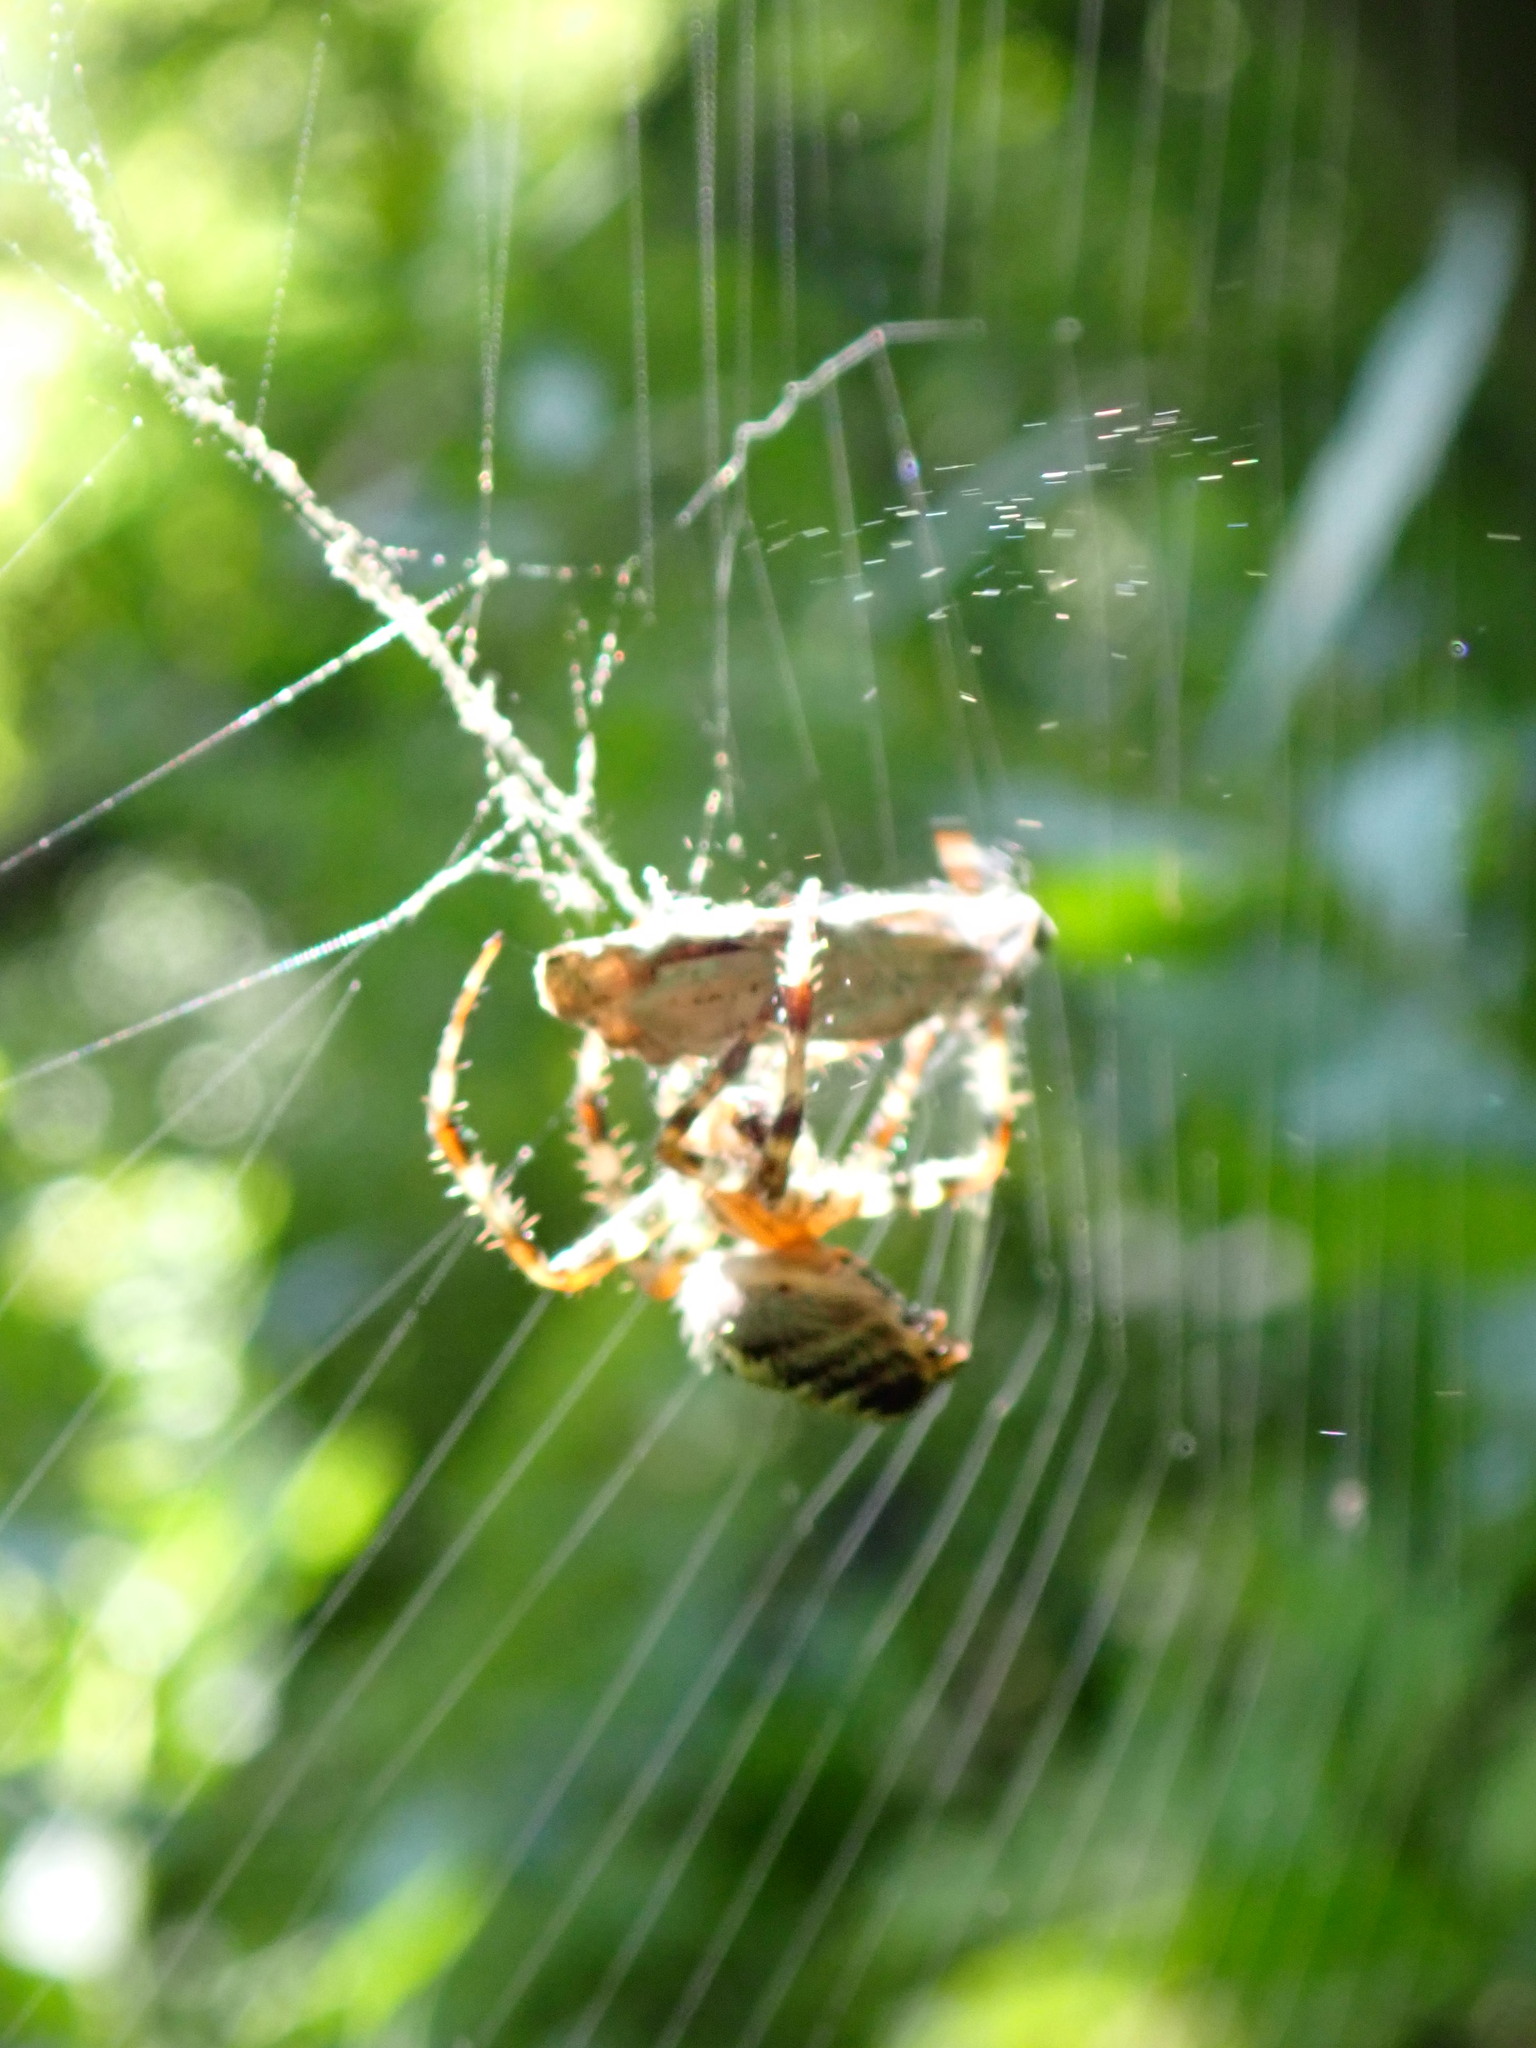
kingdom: Animalia
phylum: Arthropoda
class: Arachnida
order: Araneae
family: Araneidae
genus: Araneus
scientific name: Araneus diadematus
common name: Cross orbweaver
